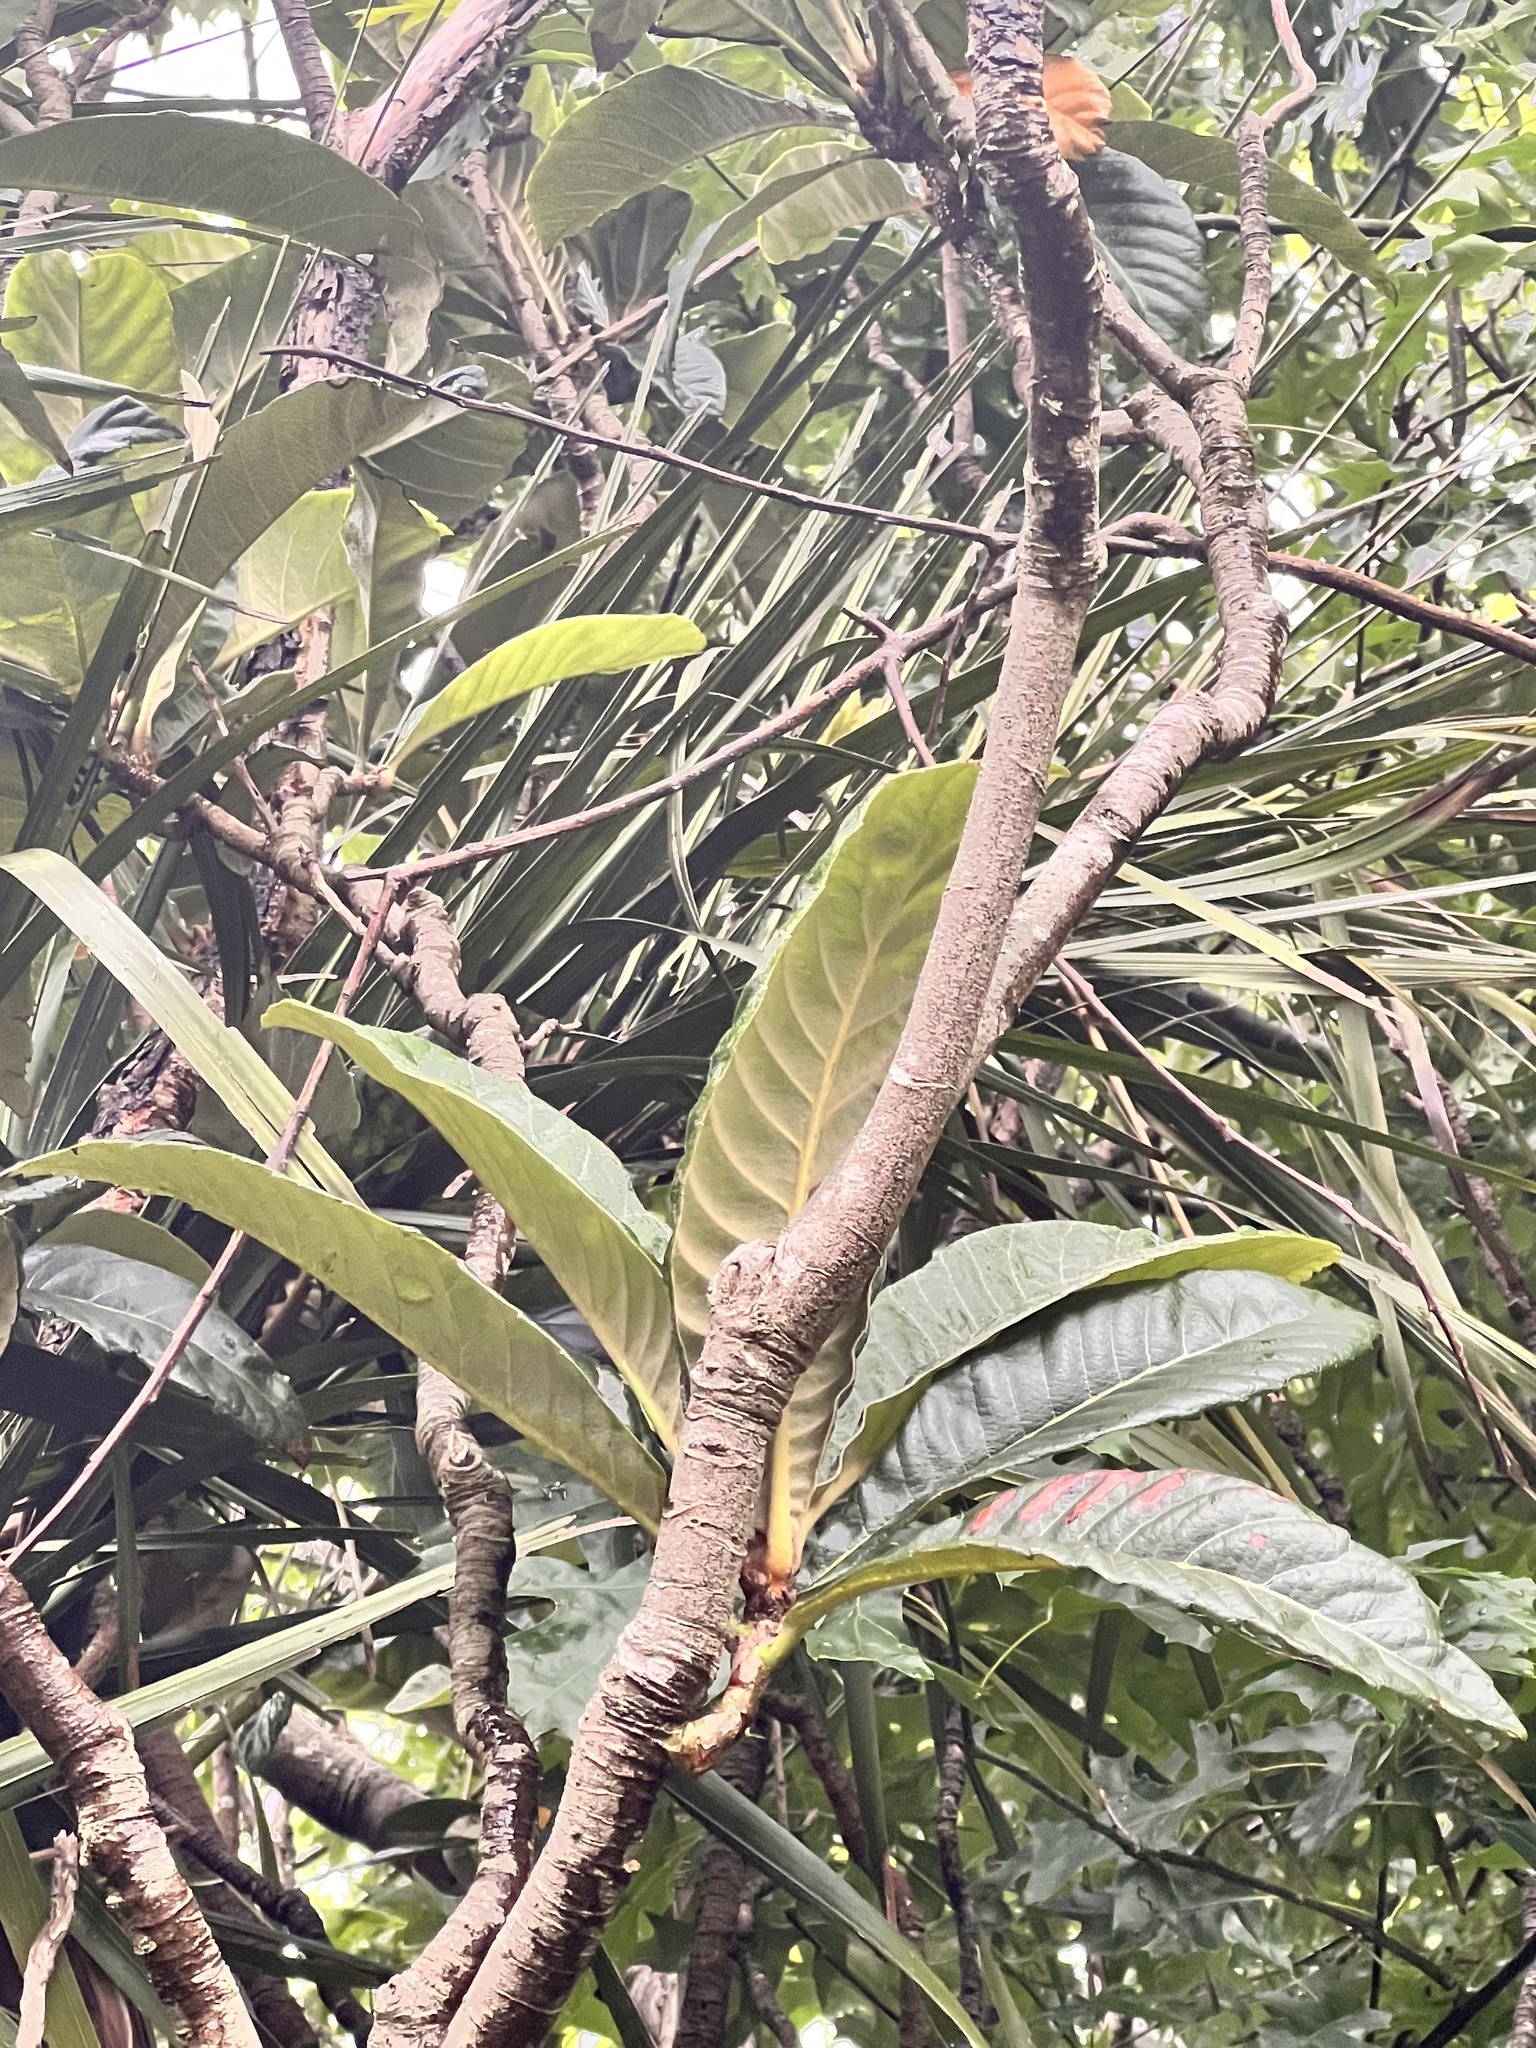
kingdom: Plantae
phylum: Tracheophyta
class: Magnoliopsida
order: Rosales
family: Rosaceae
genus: Rhaphiolepis
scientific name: Rhaphiolepis bibas
